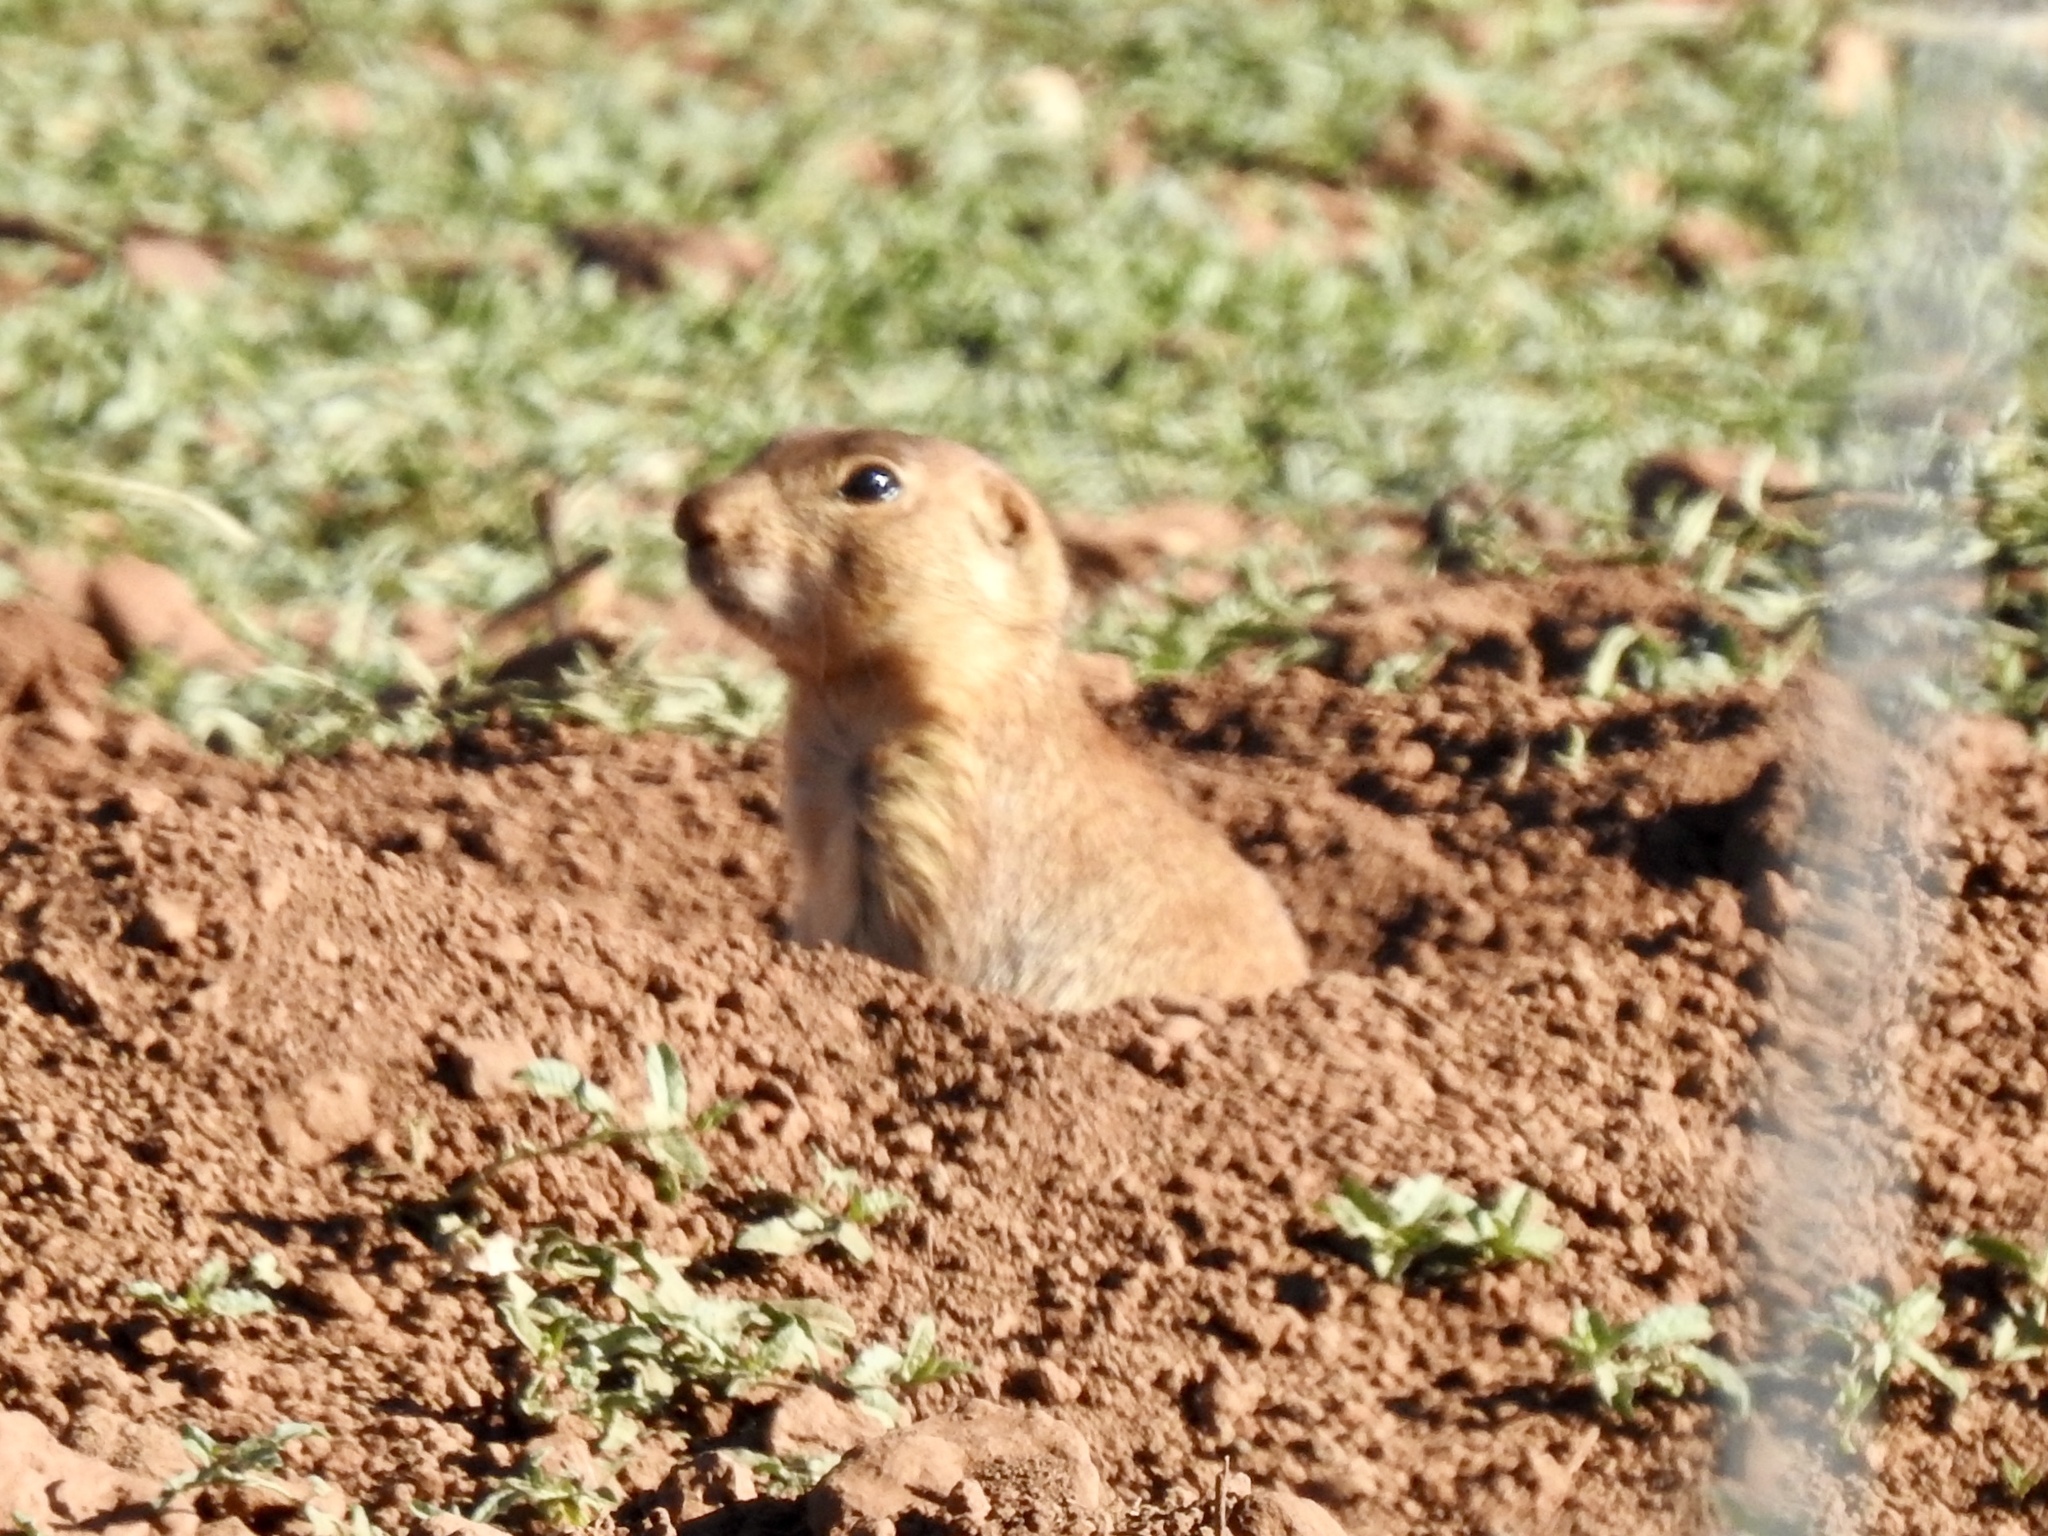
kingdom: Animalia
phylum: Chordata
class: Mammalia
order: Rodentia
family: Sciuridae
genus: Cynomys
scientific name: Cynomys gunnisoni
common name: Gunnison's prairie dog
